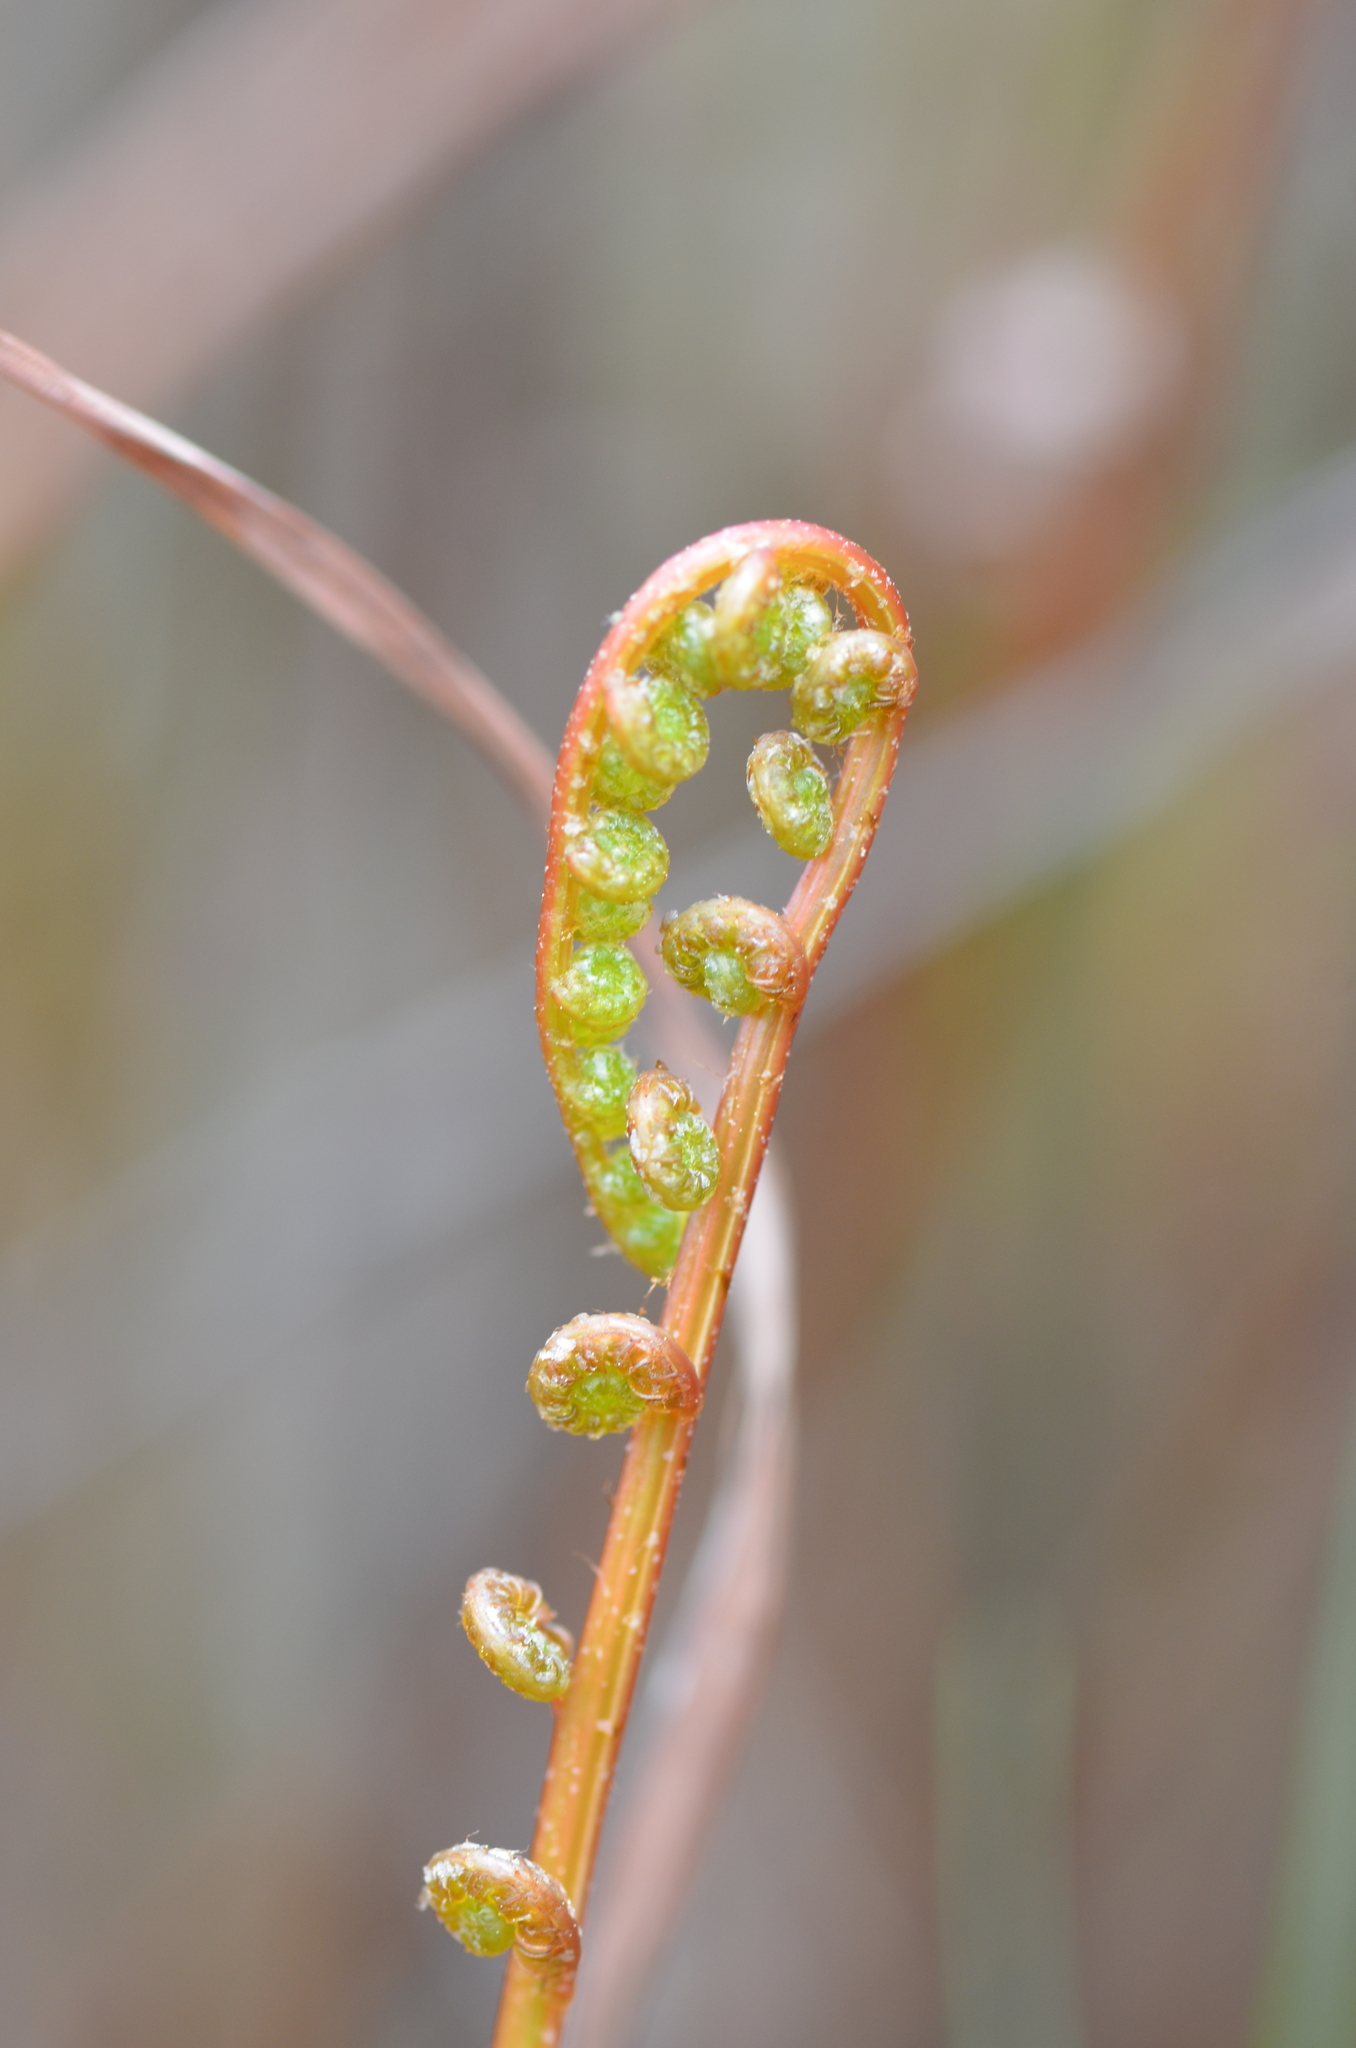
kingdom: Plantae
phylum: Tracheophyta
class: Polypodiopsida
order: Polypodiales
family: Blechnaceae
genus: Telmatoblechnum
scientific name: Telmatoblechnum serrulatum
